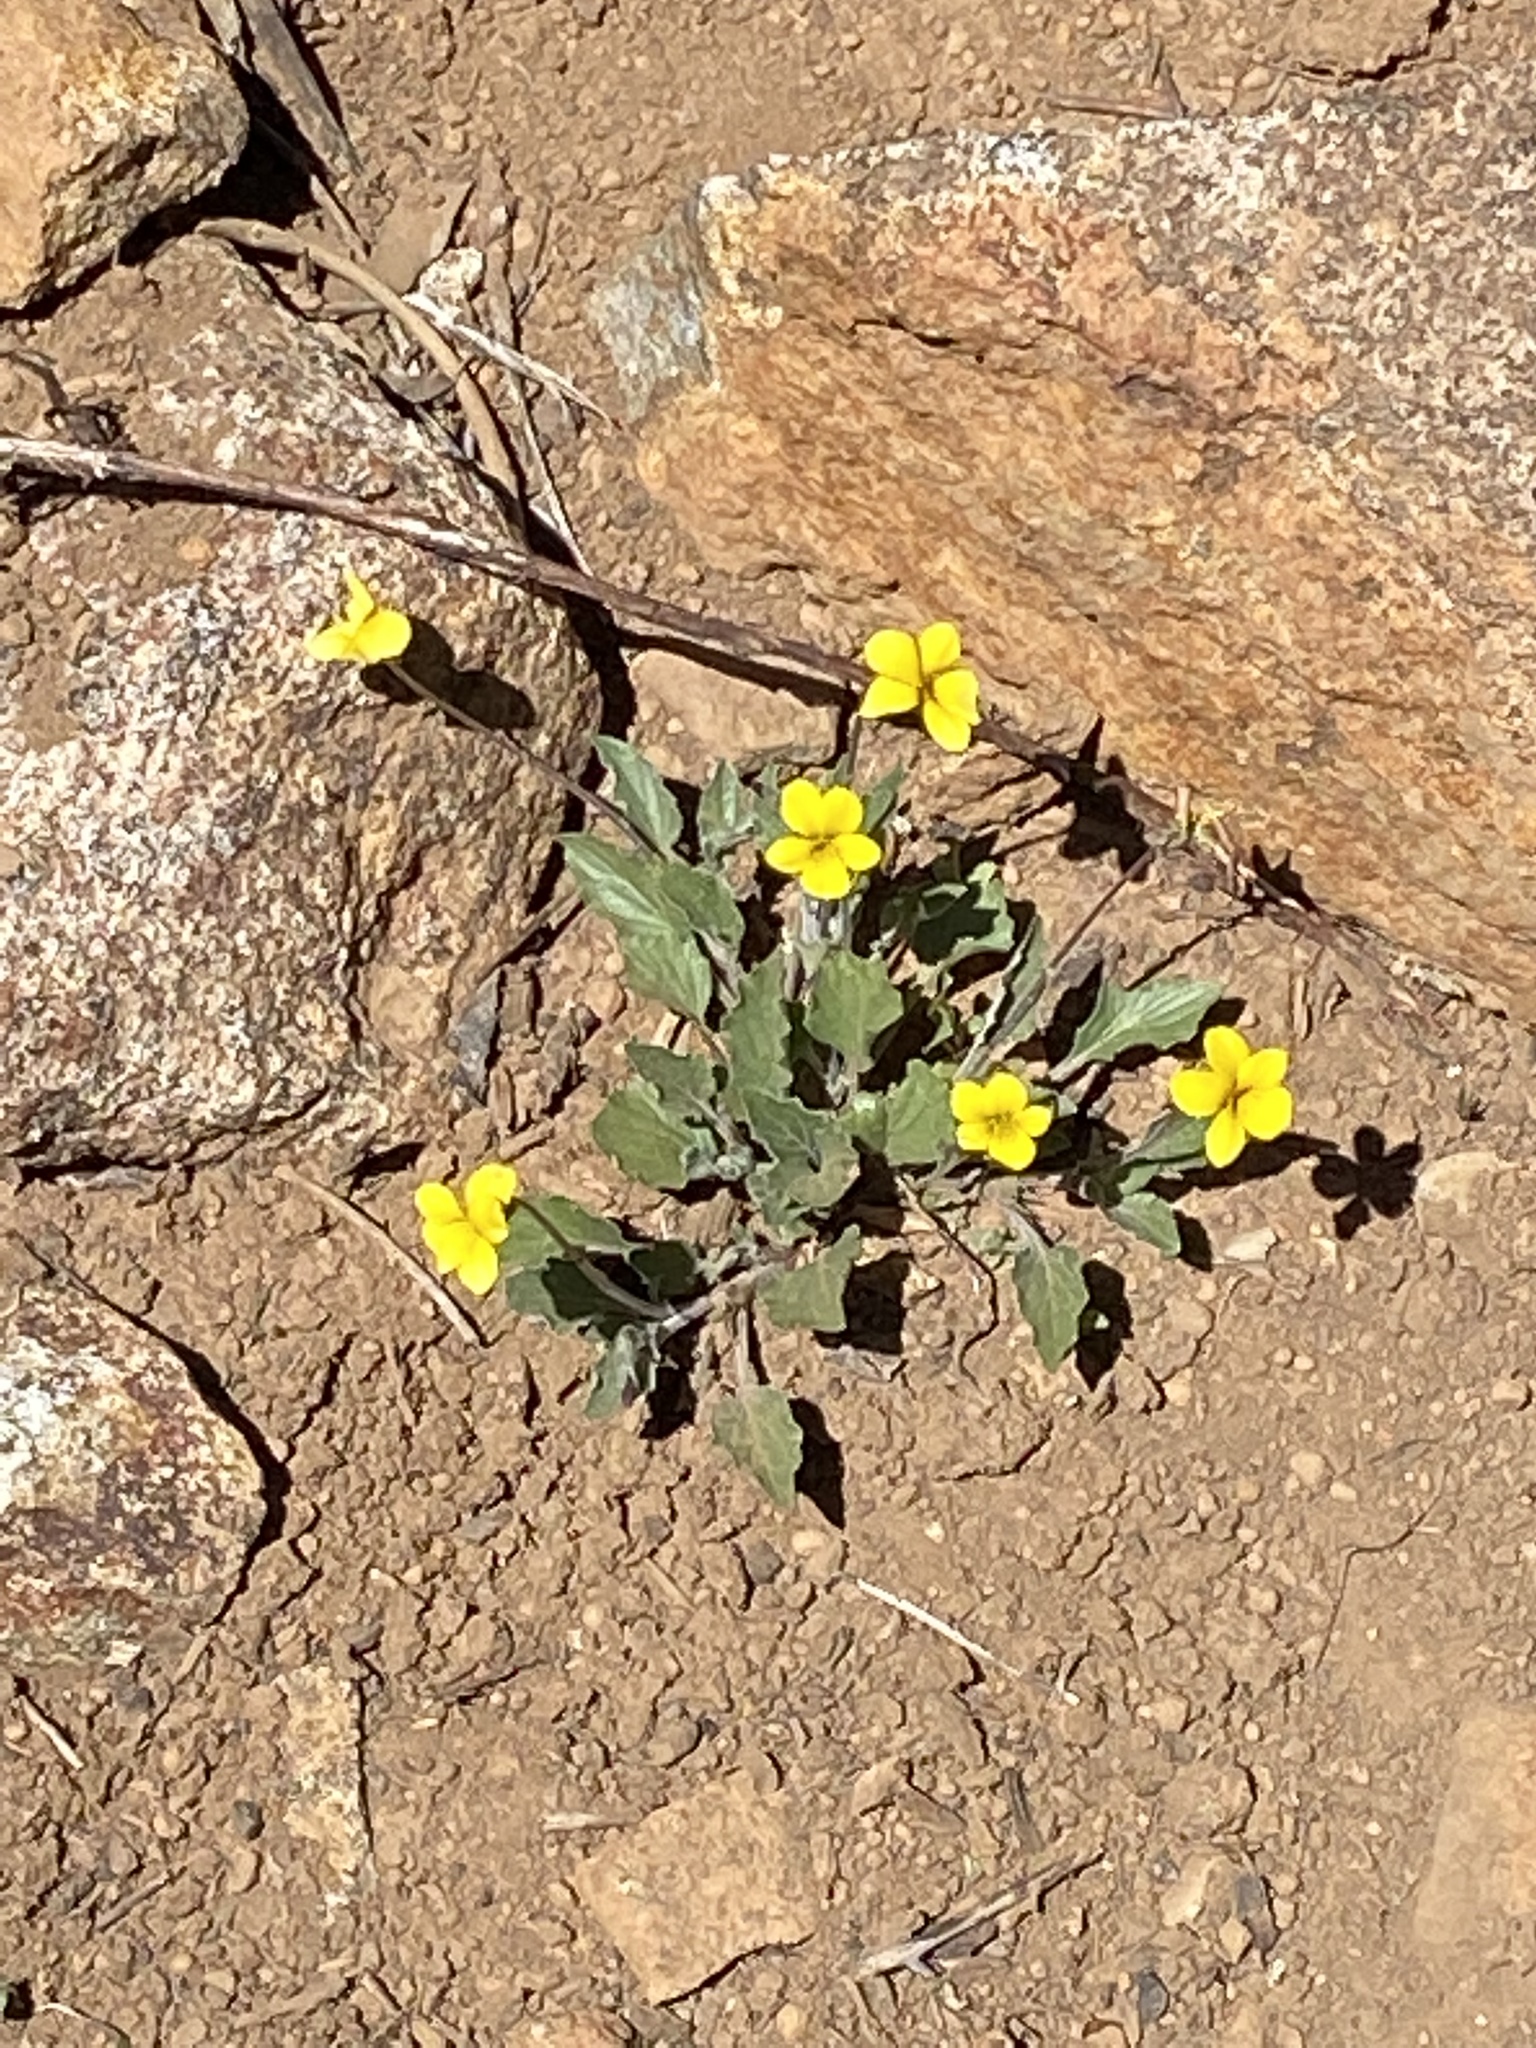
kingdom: Plantae
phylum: Tracheophyta
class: Magnoliopsida
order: Malpighiales
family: Violaceae
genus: Viola
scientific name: Viola purpurea
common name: Pine violet
